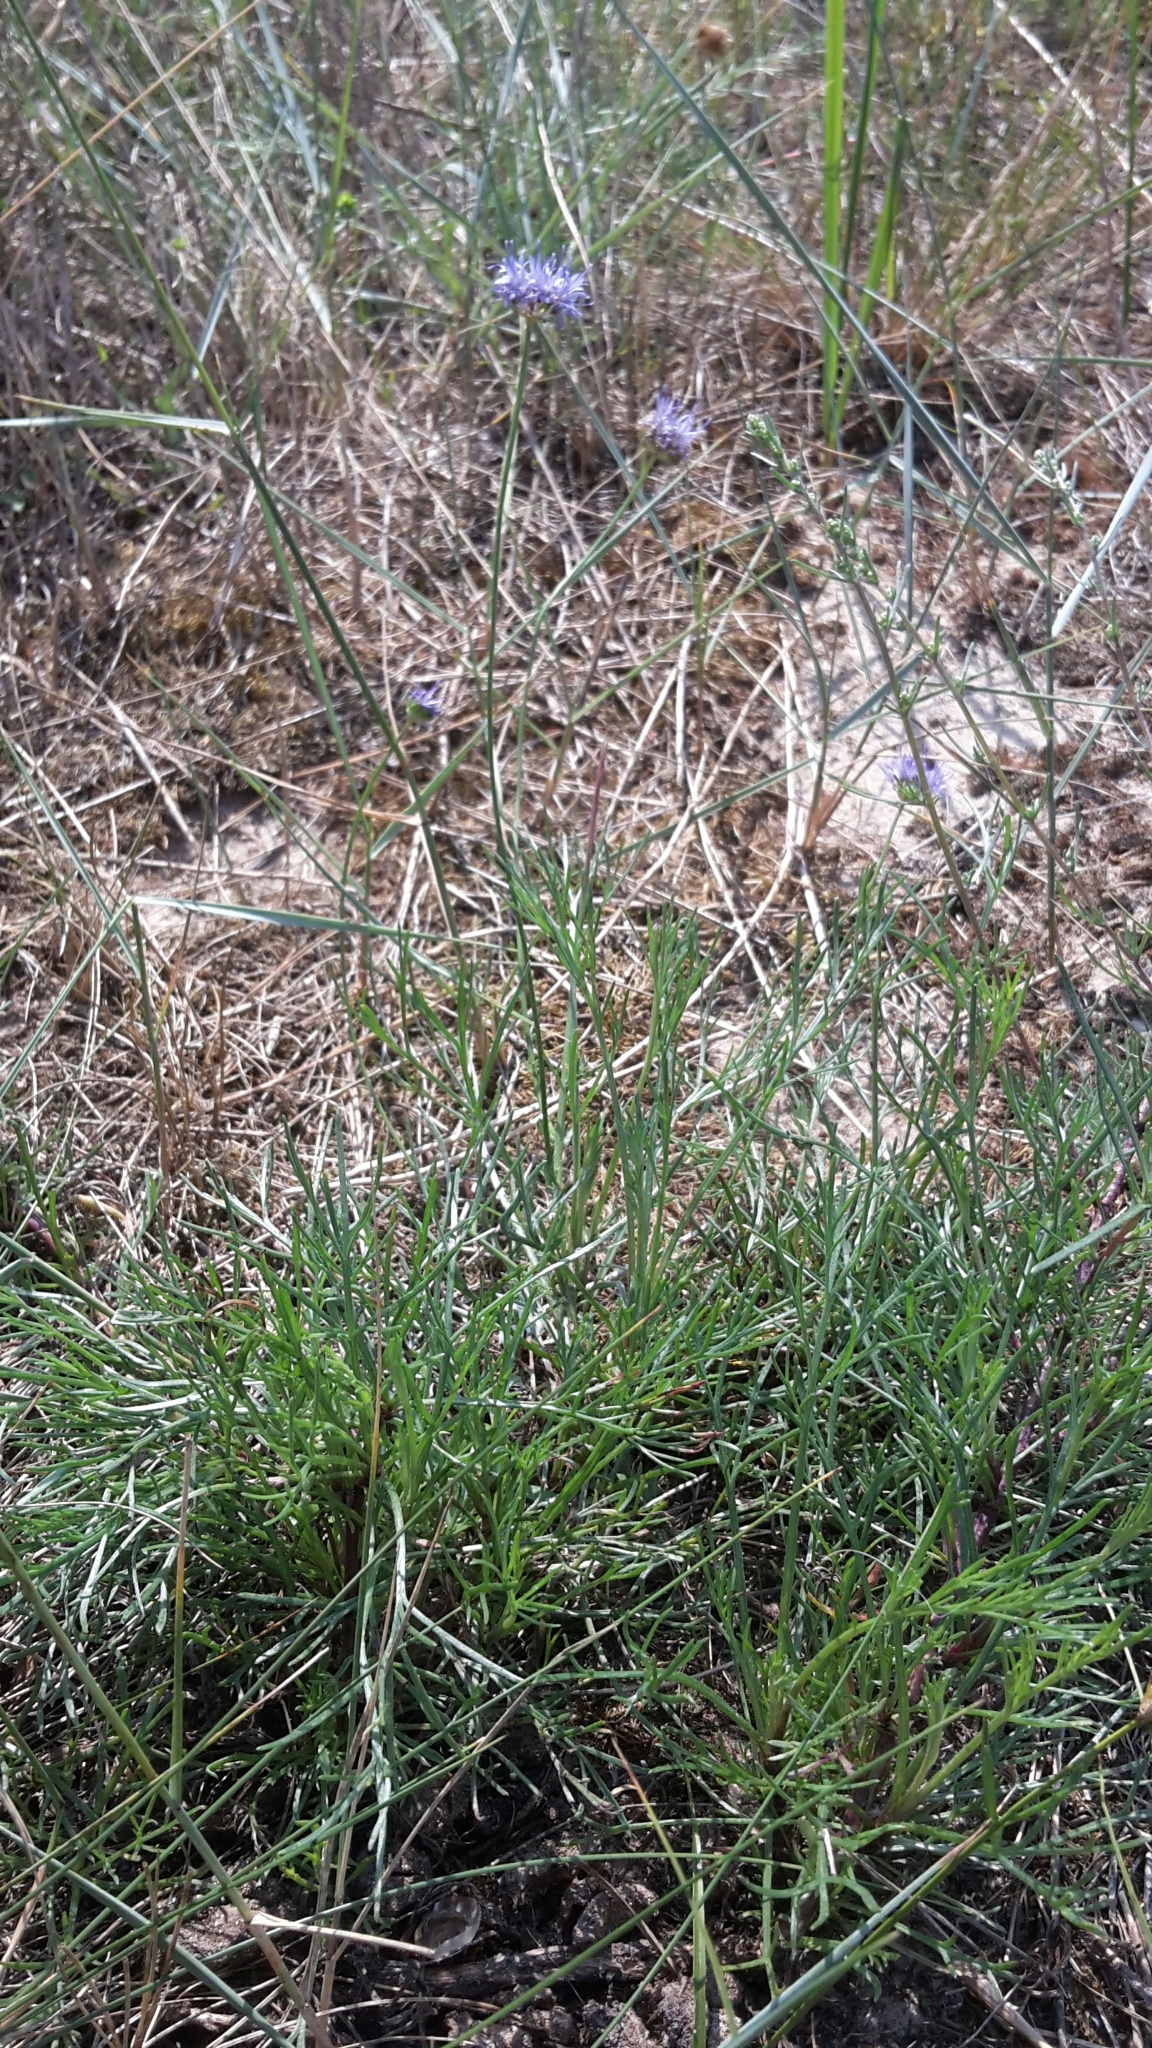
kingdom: Plantae
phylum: Tracheophyta
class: Magnoliopsida
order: Asterales
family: Campanulaceae
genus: Jasione
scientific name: Jasione montana
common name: Sheep's-bit
